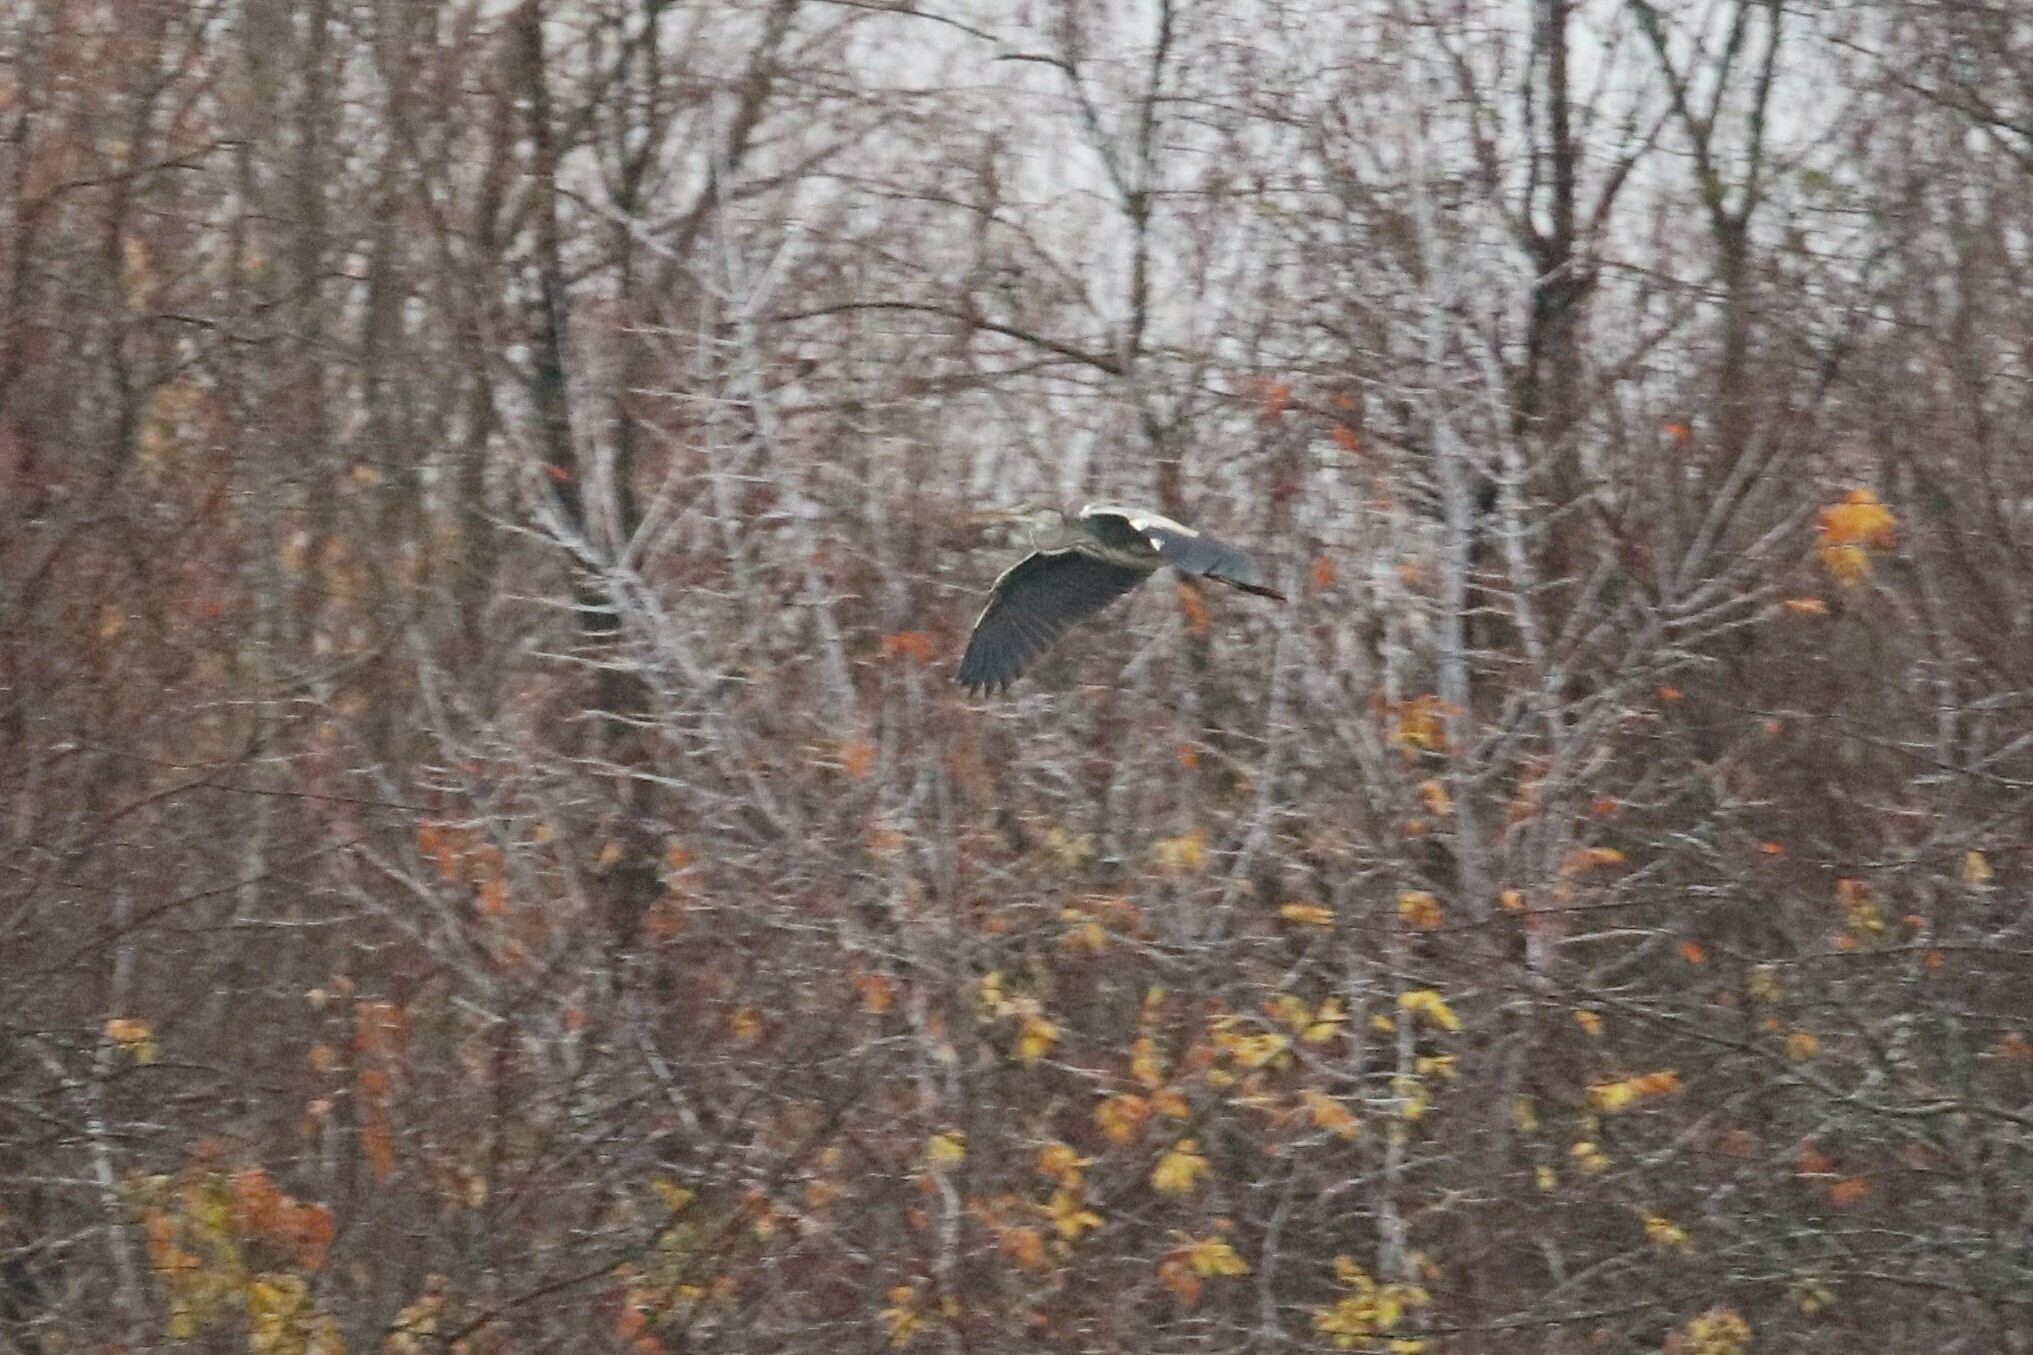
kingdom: Animalia
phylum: Chordata
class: Aves
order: Pelecaniformes
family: Ardeidae
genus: Ardea
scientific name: Ardea cinerea
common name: Grey heron
